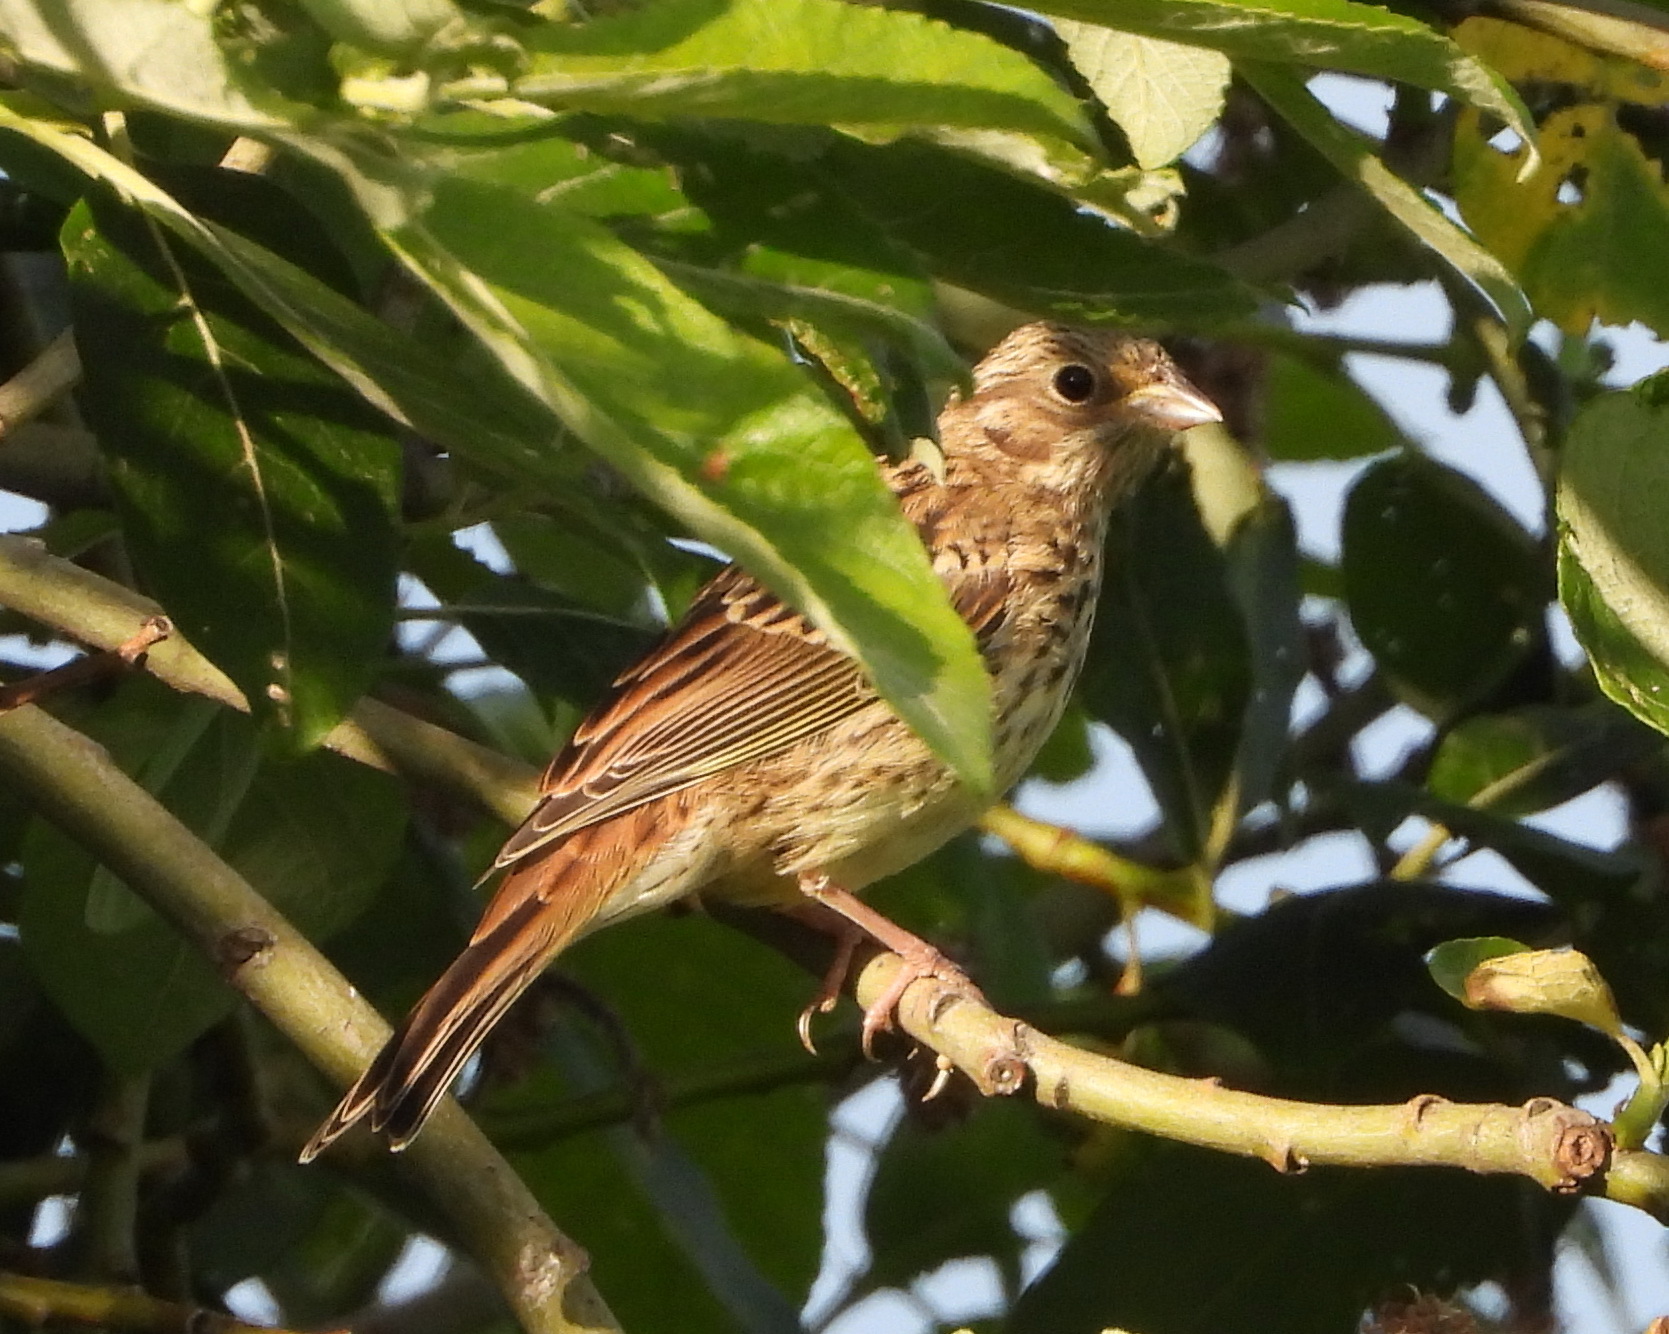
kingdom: Animalia
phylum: Chordata
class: Aves
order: Passeriformes
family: Emberizidae
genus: Emberiza
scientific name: Emberiza hortulana
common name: Ortolan bunting
